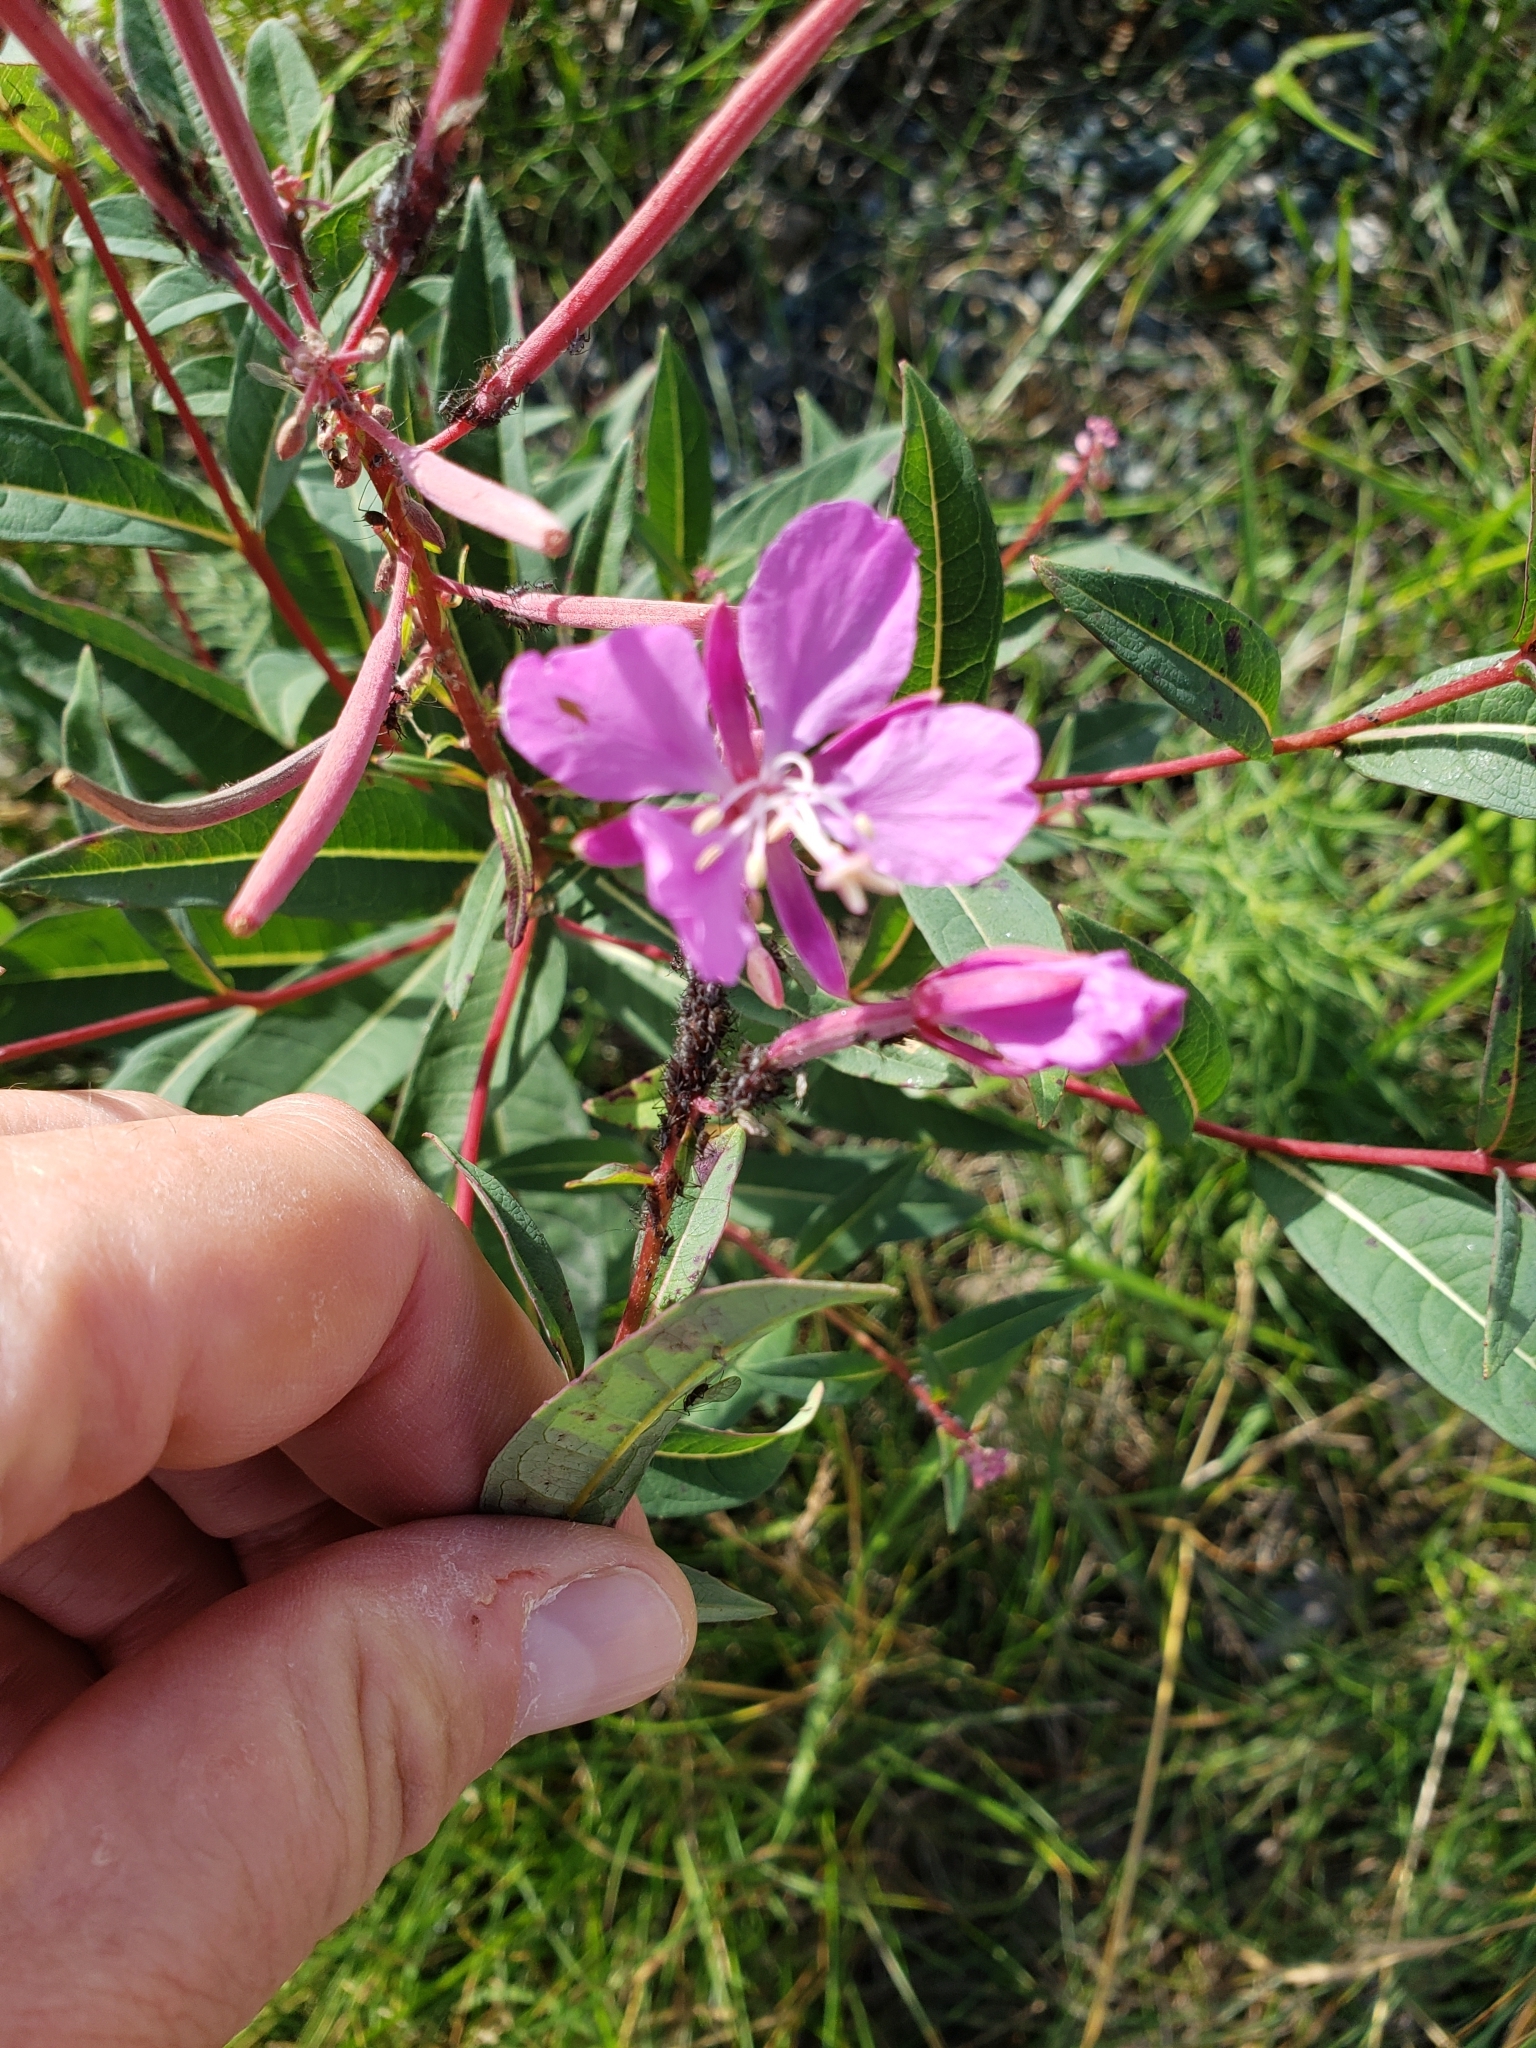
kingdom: Plantae
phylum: Tracheophyta
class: Magnoliopsida
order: Myrtales
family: Onagraceae
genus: Chamaenerion
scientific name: Chamaenerion angustifolium
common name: Fireweed
